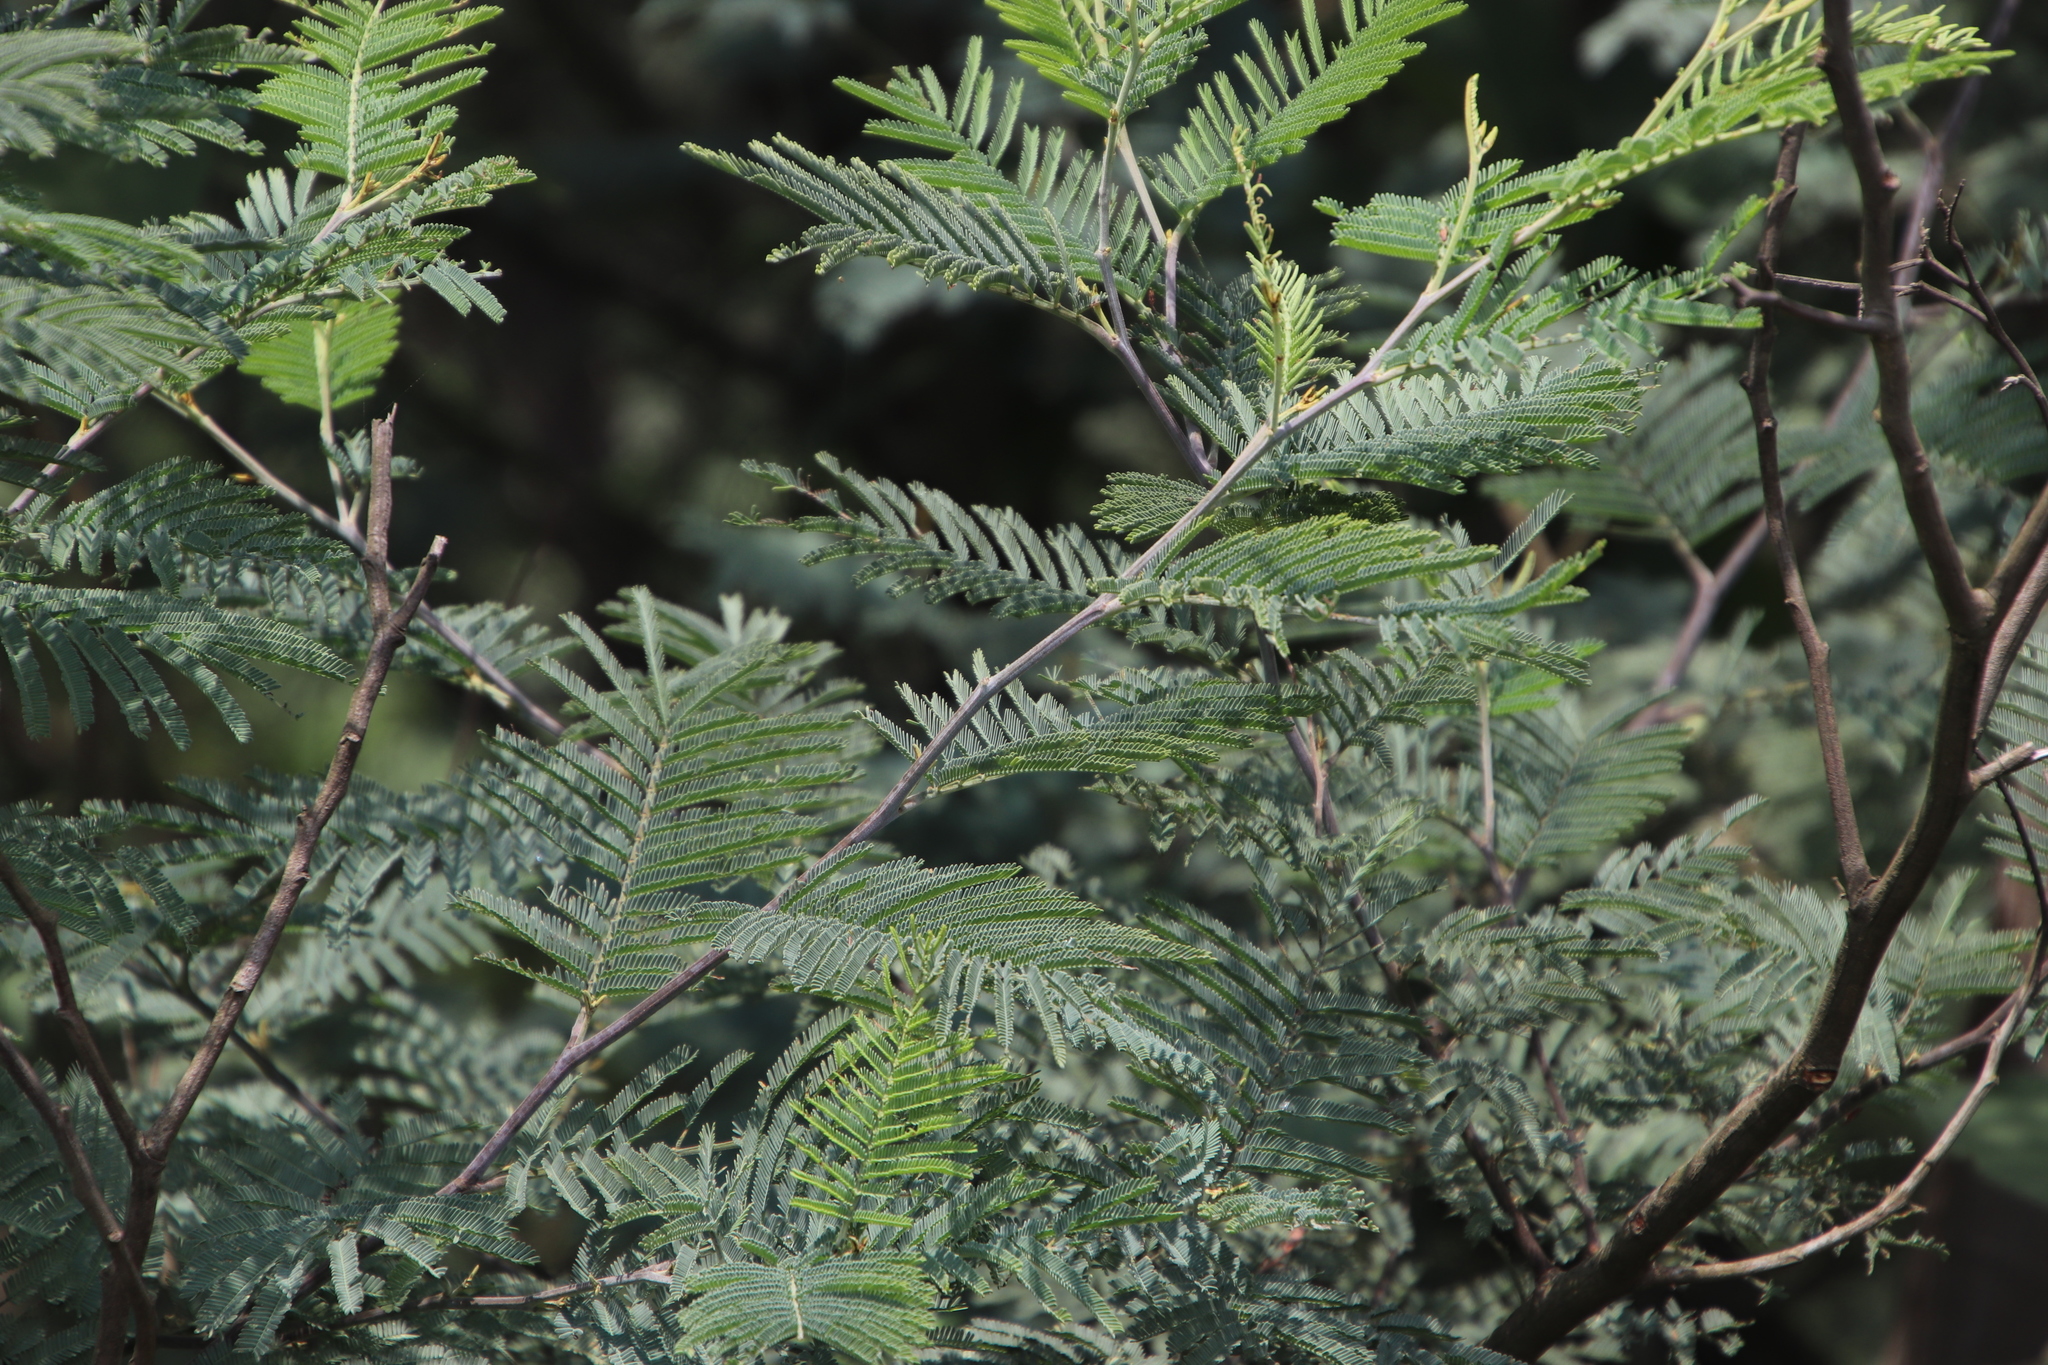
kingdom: Plantae
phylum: Tracheophyta
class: Magnoliopsida
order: Fabales
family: Fabaceae
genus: Acacia
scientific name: Acacia dealbata
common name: Silver wattle
